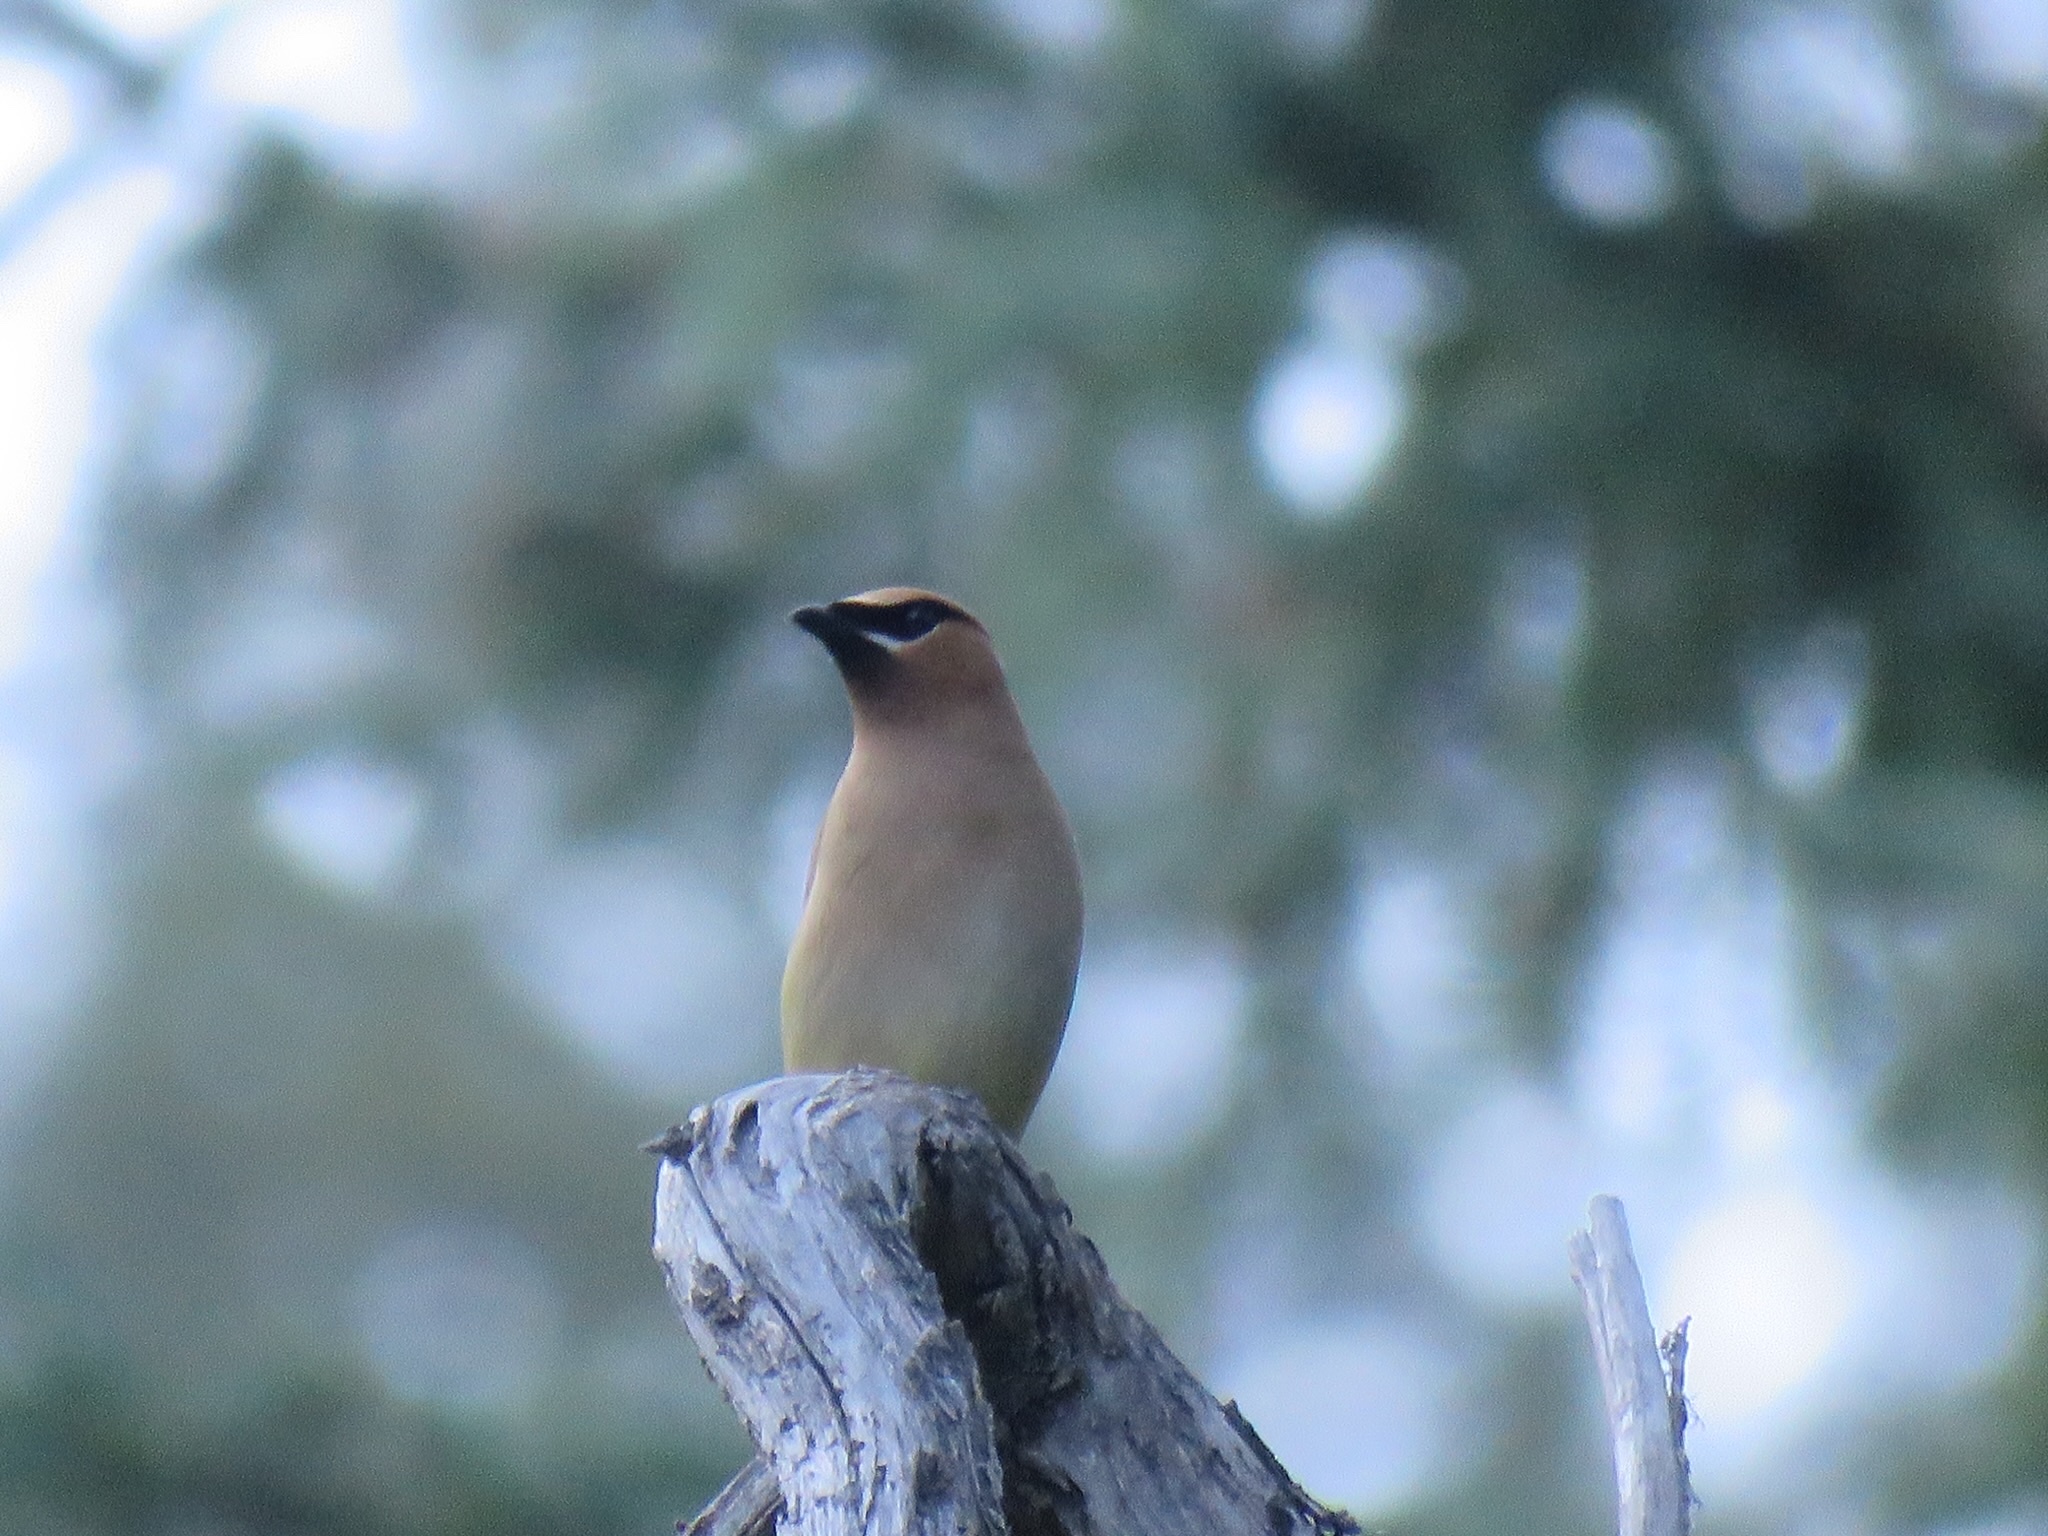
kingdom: Animalia
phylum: Chordata
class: Aves
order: Passeriformes
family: Bombycillidae
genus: Bombycilla
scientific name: Bombycilla cedrorum
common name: Cedar waxwing
